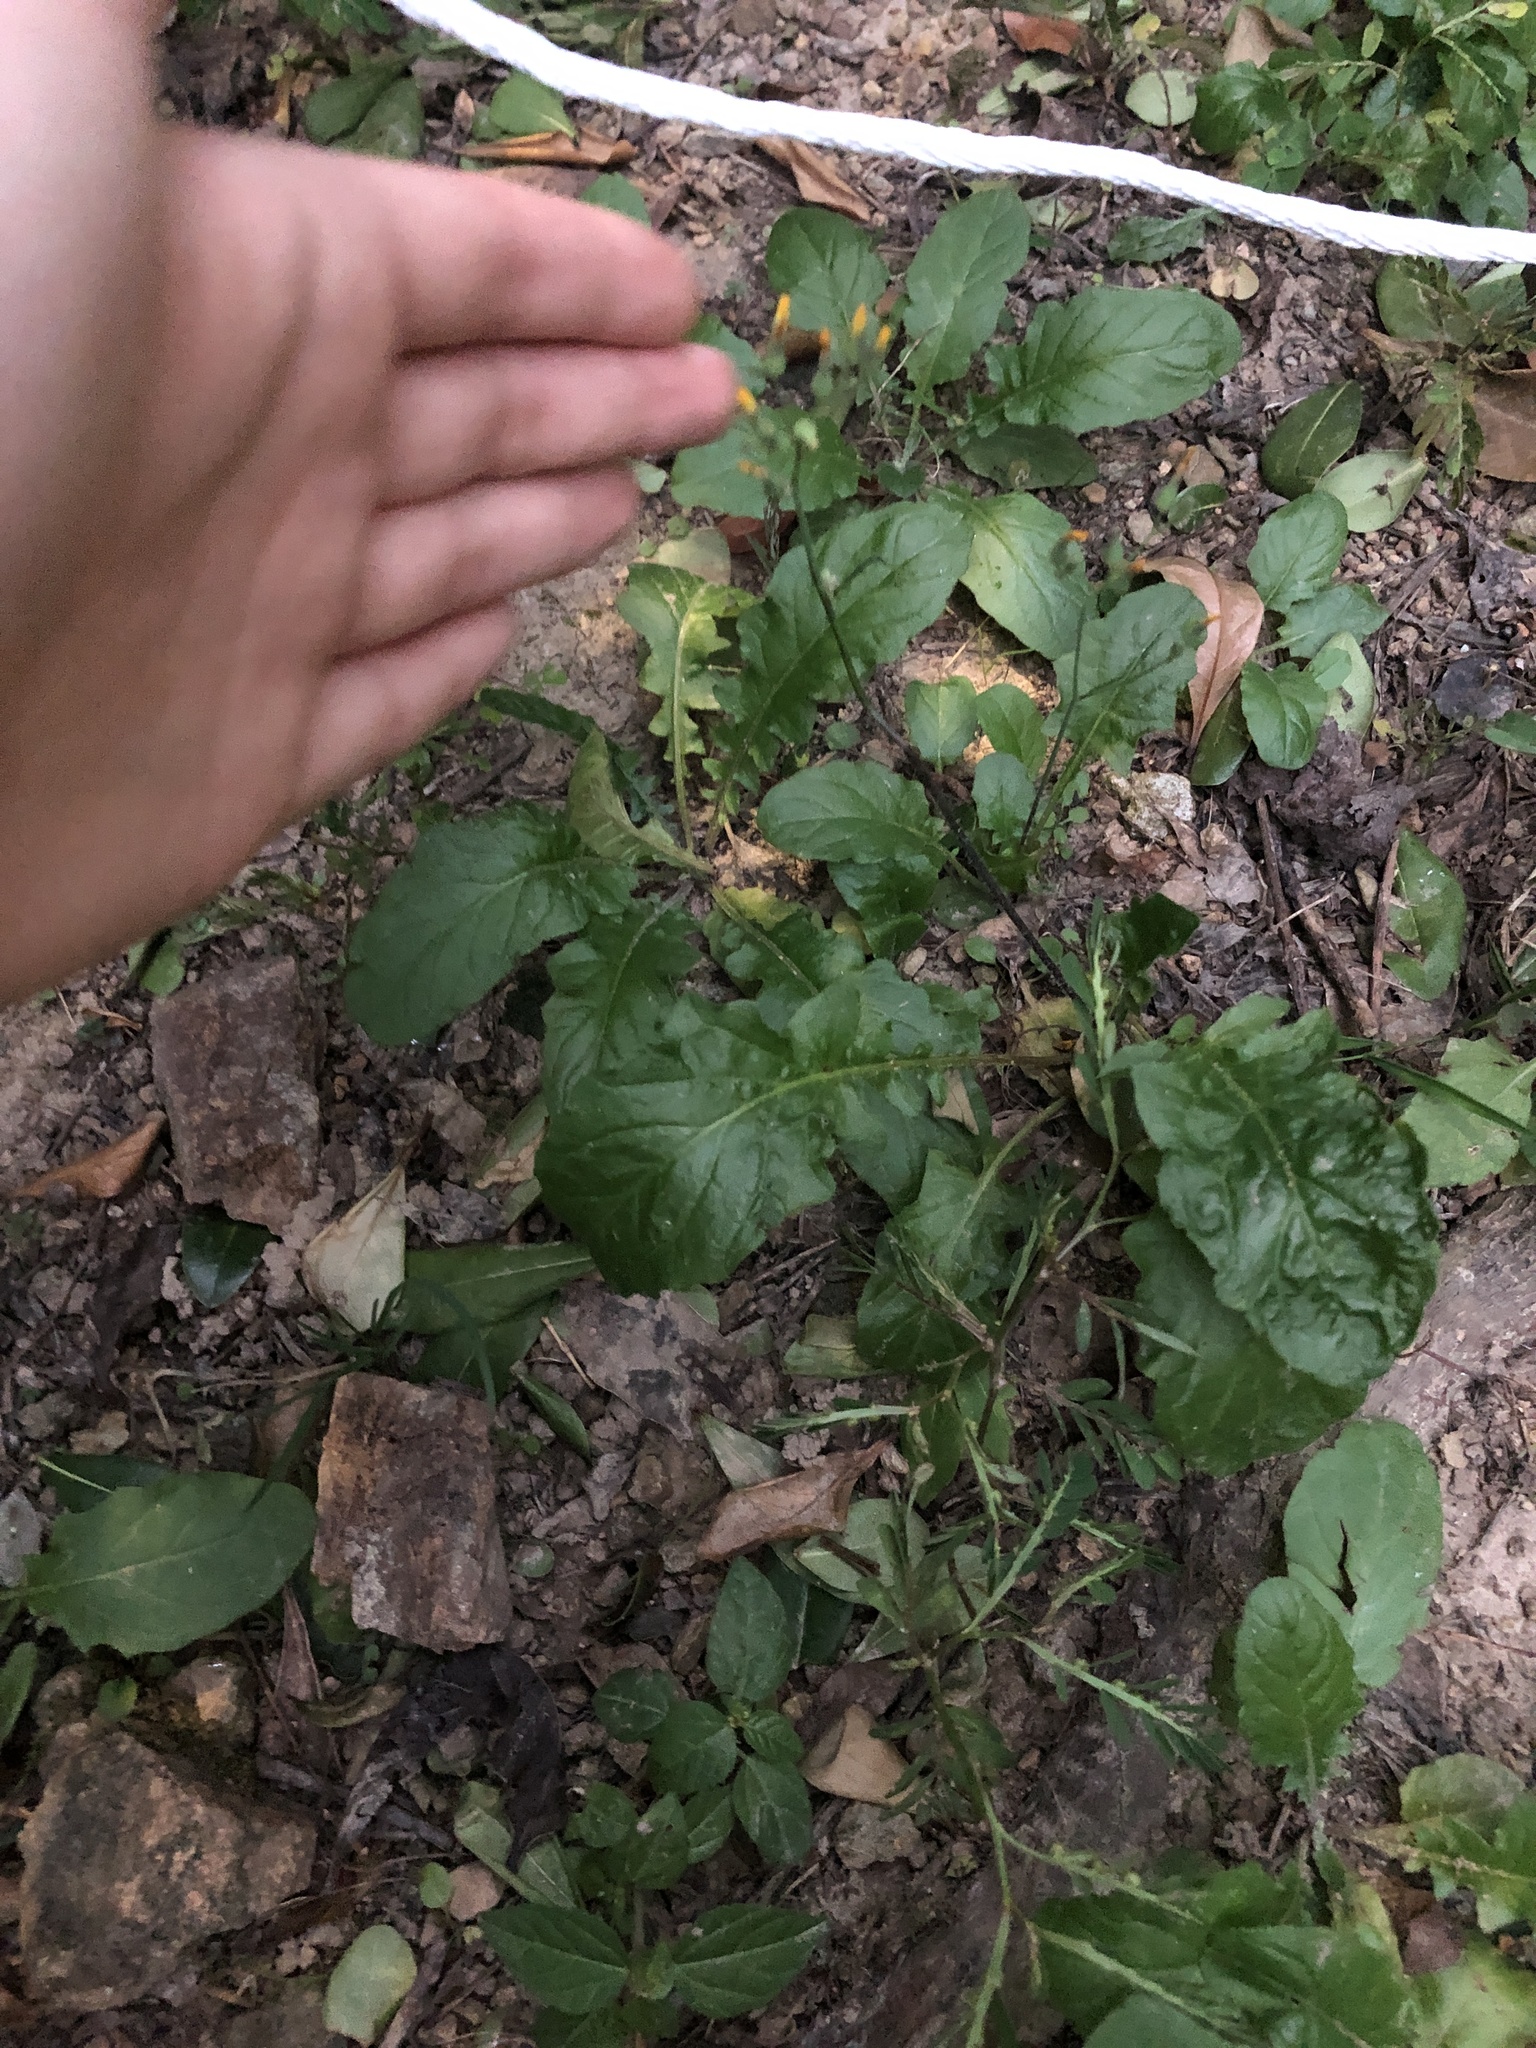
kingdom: Plantae
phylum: Tracheophyta
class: Magnoliopsida
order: Asterales
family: Asteraceae
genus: Youngia
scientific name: Youngia japonica
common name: Oriental false hawksbeard
